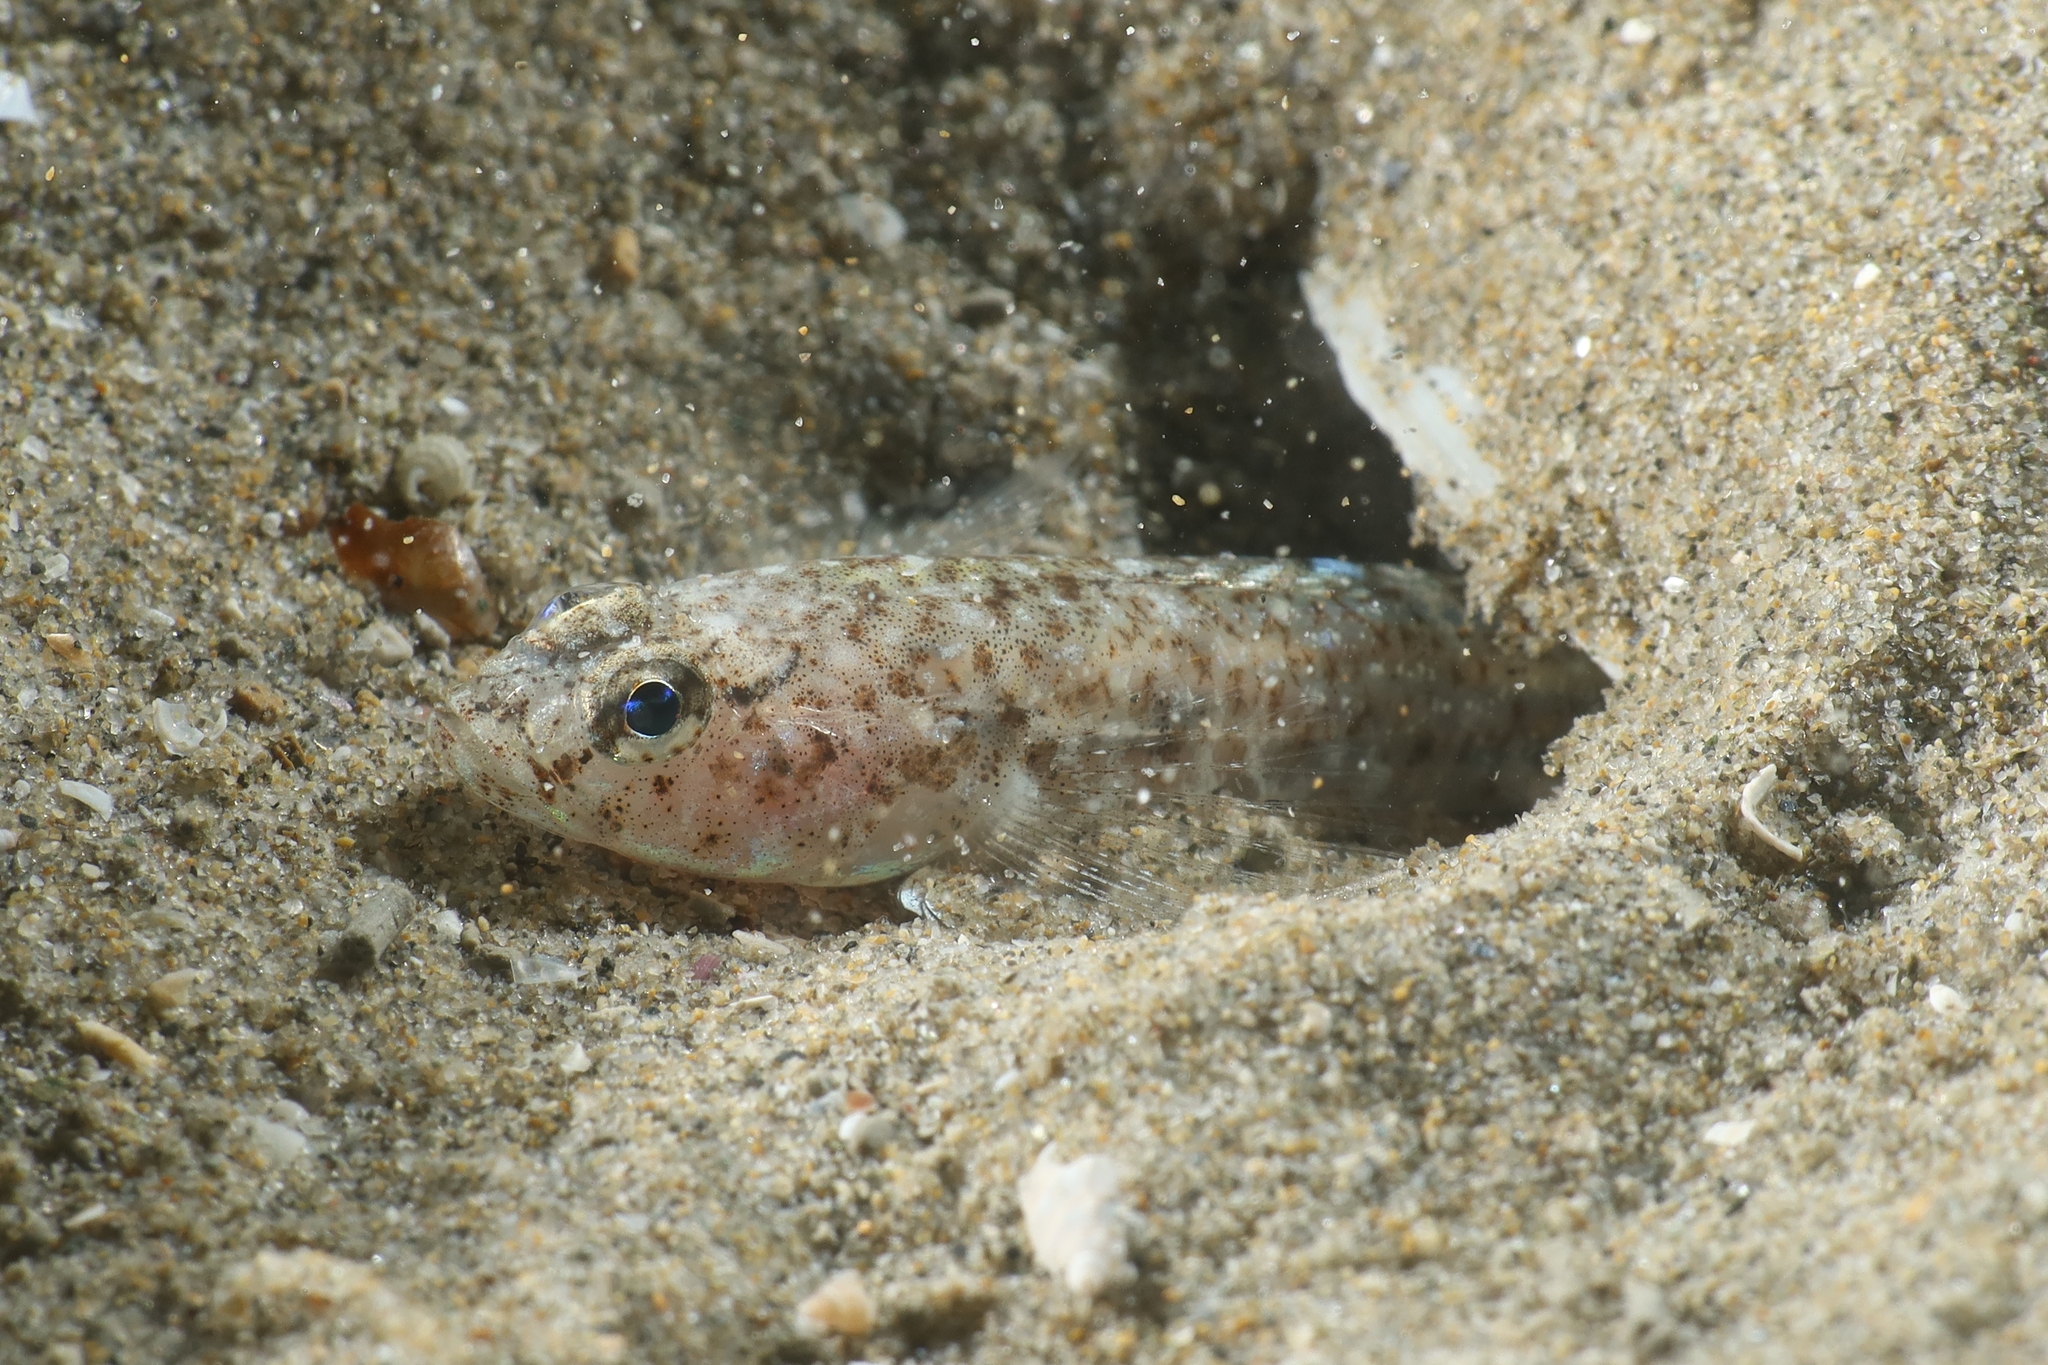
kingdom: Animalia
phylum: Chordata
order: Perciformes
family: Gobiidae
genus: Pomatoschistus
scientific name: Pomatoschistus marmoratus
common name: Marbled goby
